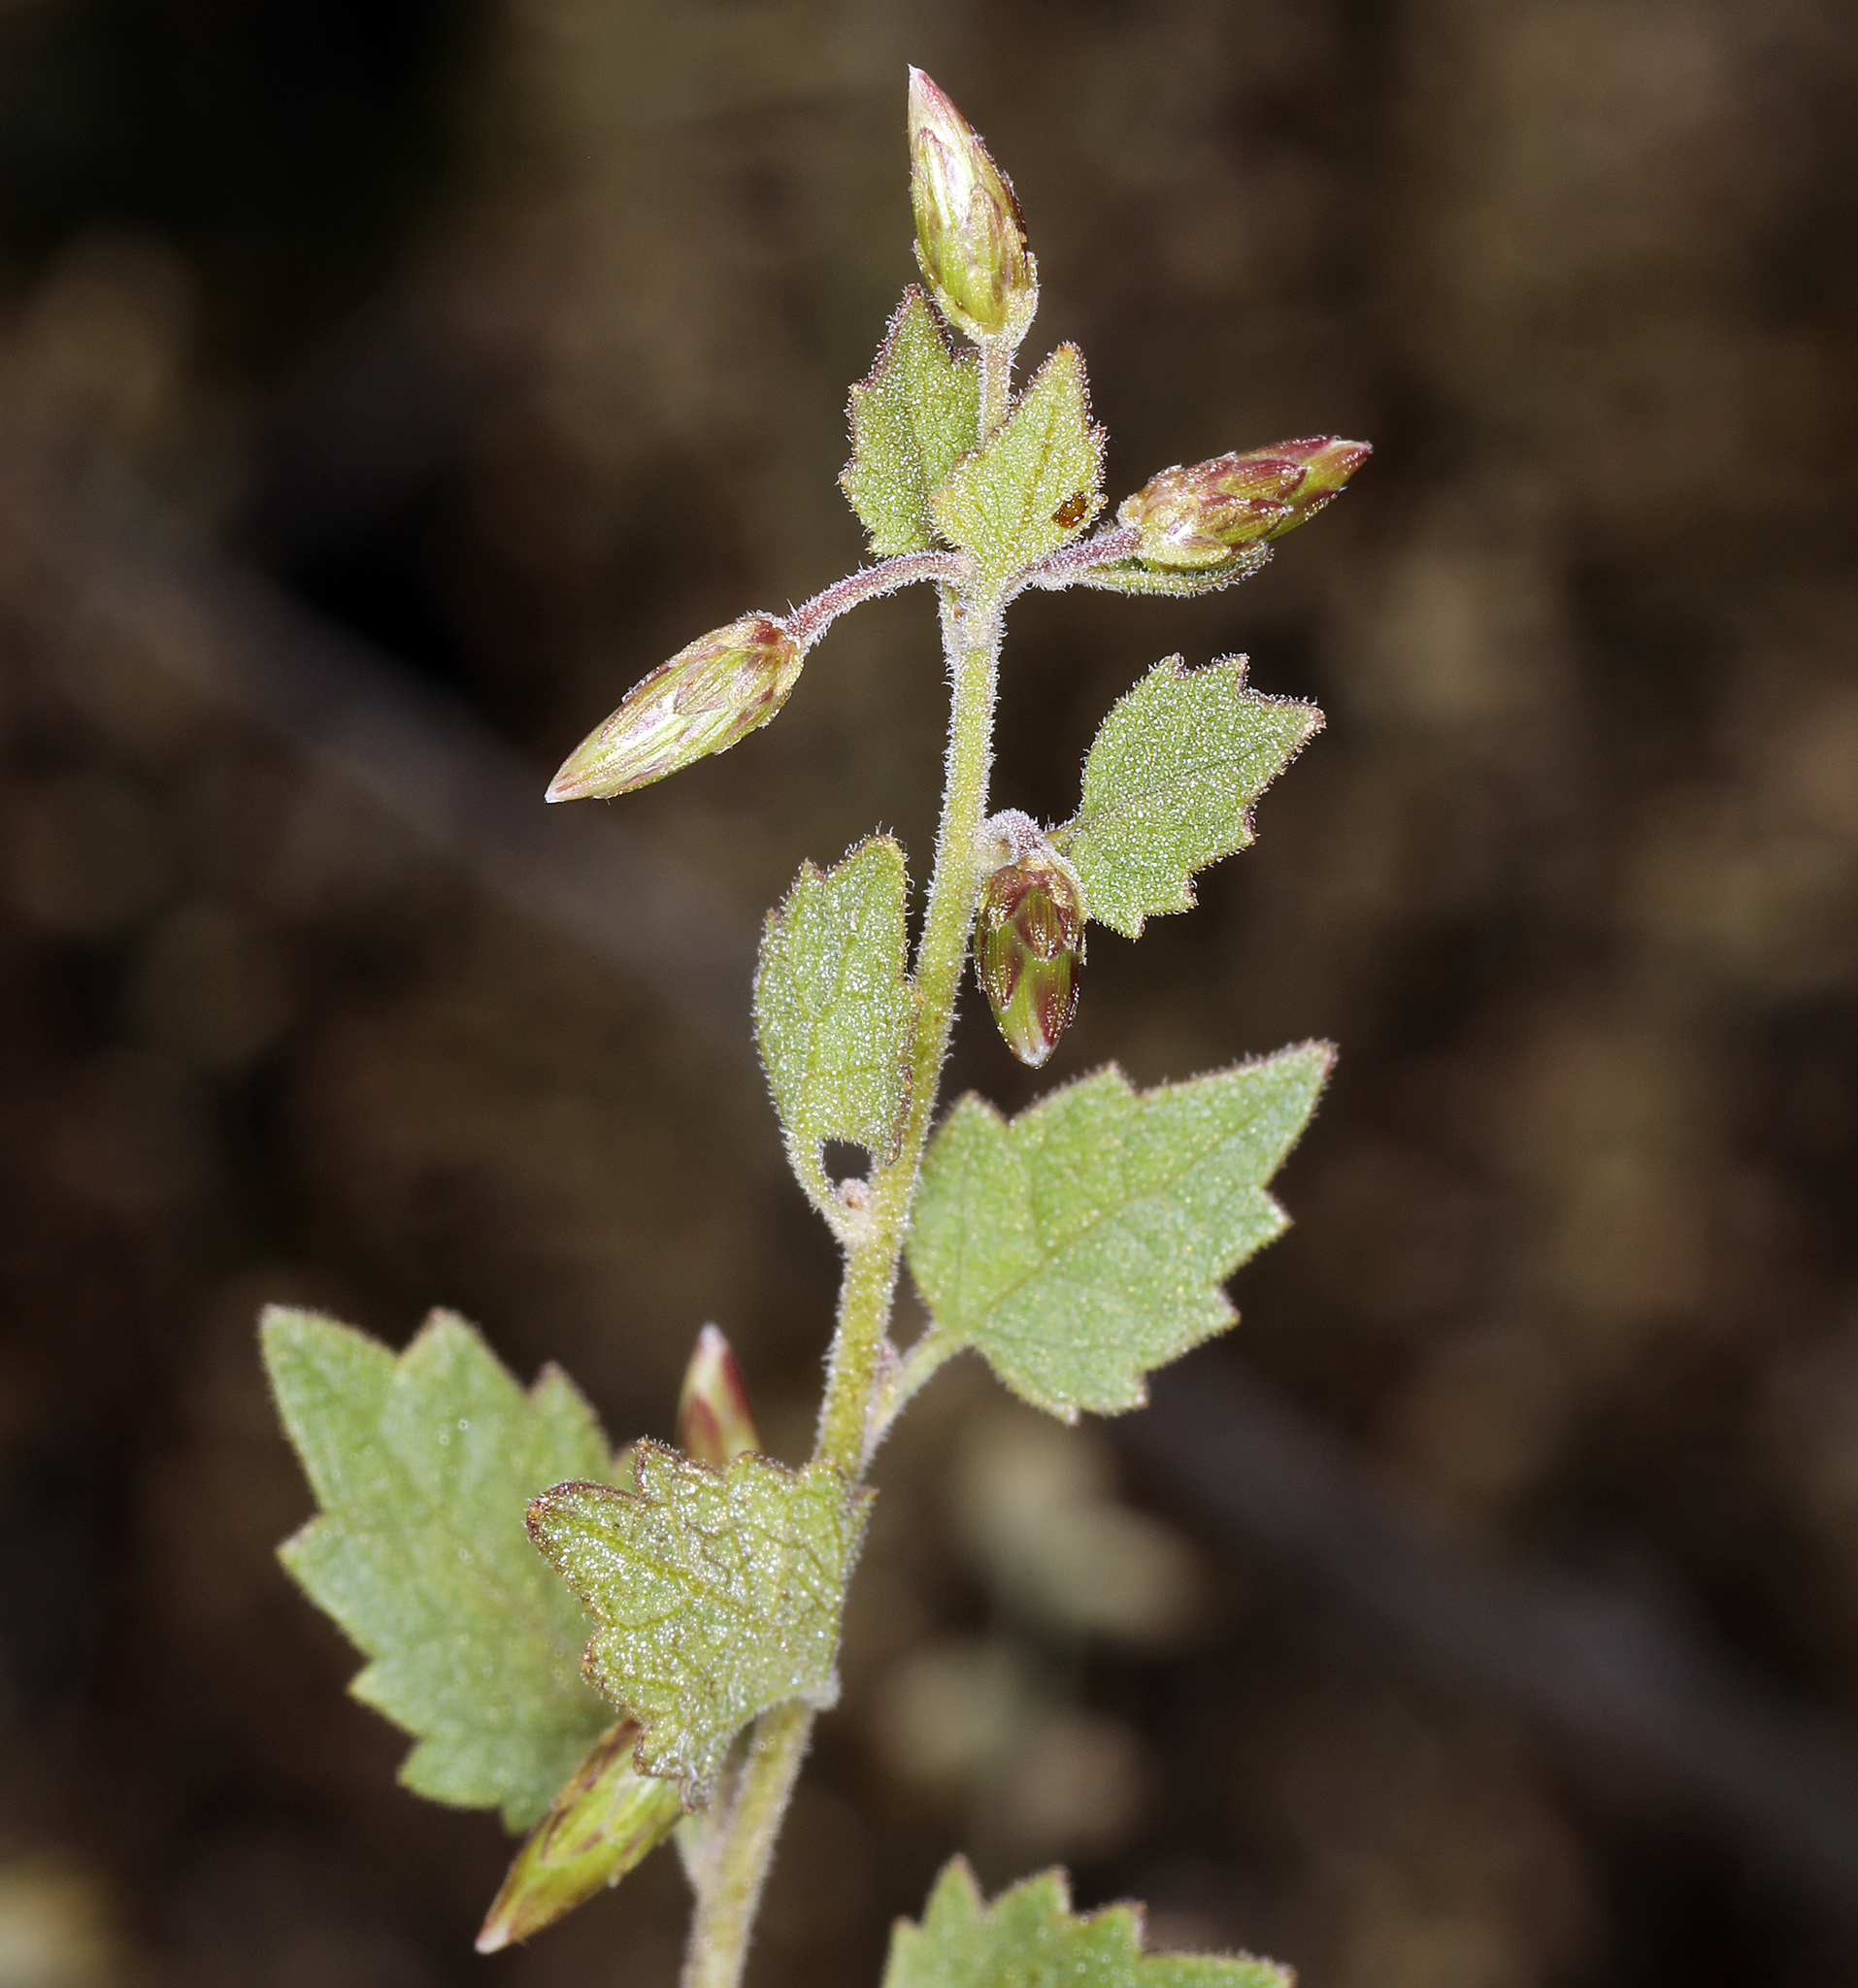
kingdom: Plantae
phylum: Tracheophyta
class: Magnoliopsida
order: Asterales
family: Asteraceae
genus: Brickellia
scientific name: Brickellia californica
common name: California brickellbush
